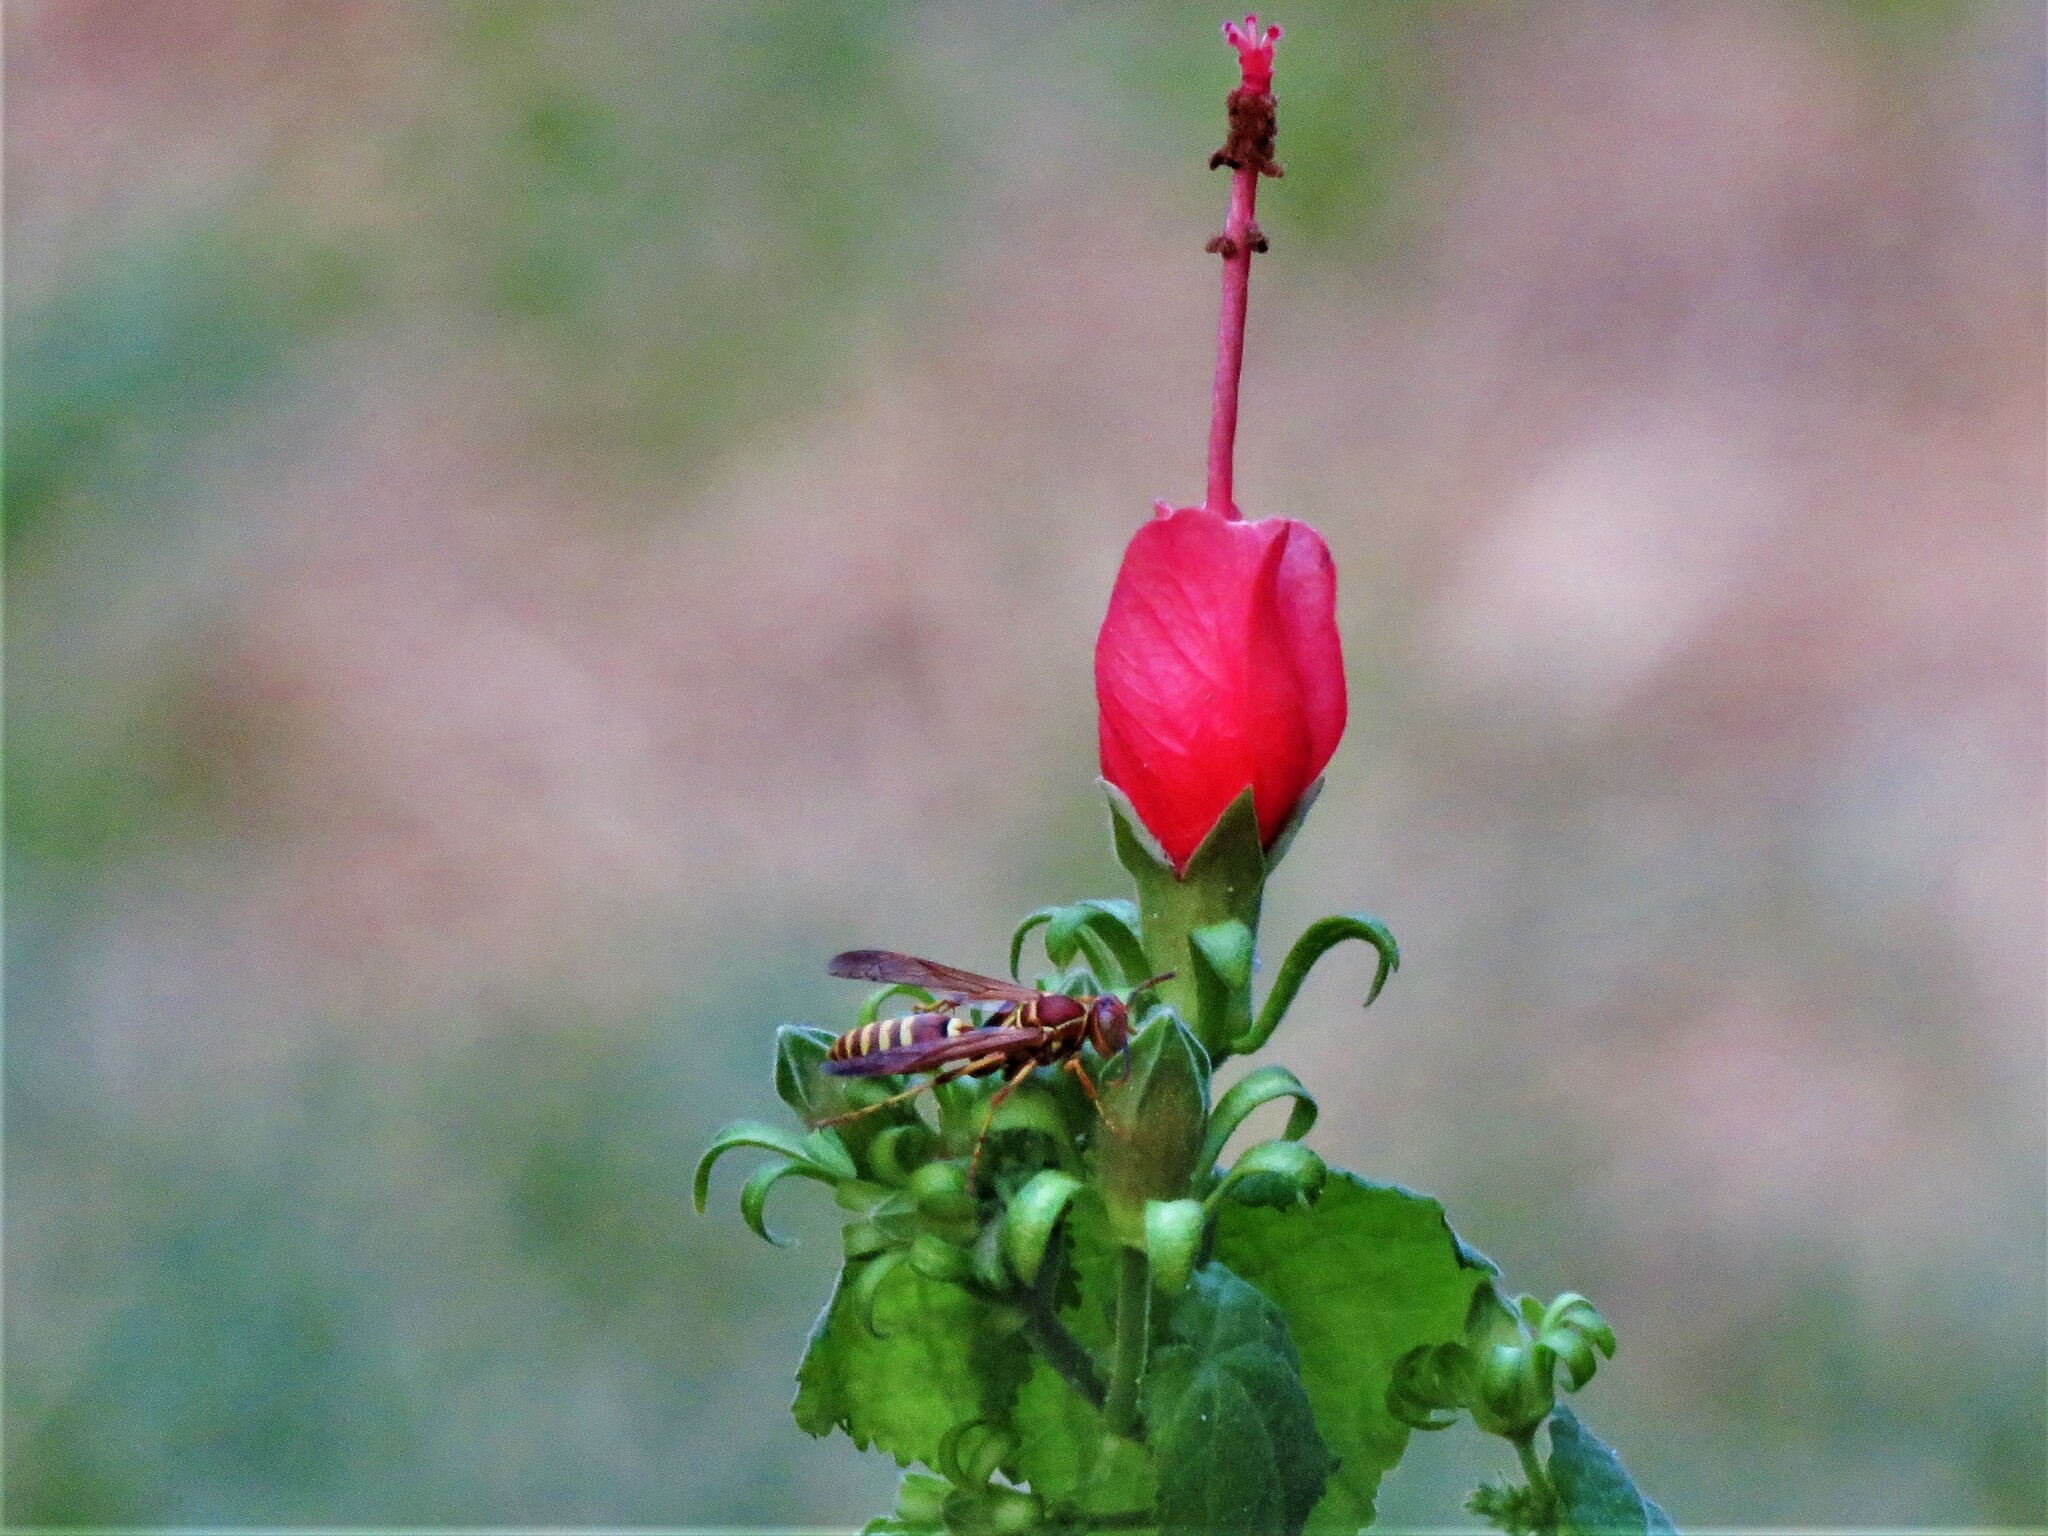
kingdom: Animalia
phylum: Arthropoda
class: Insecta
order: Hymenoptera
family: Eumenidae
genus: Polistes
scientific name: Polistes exclamans
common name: Paper wasp
